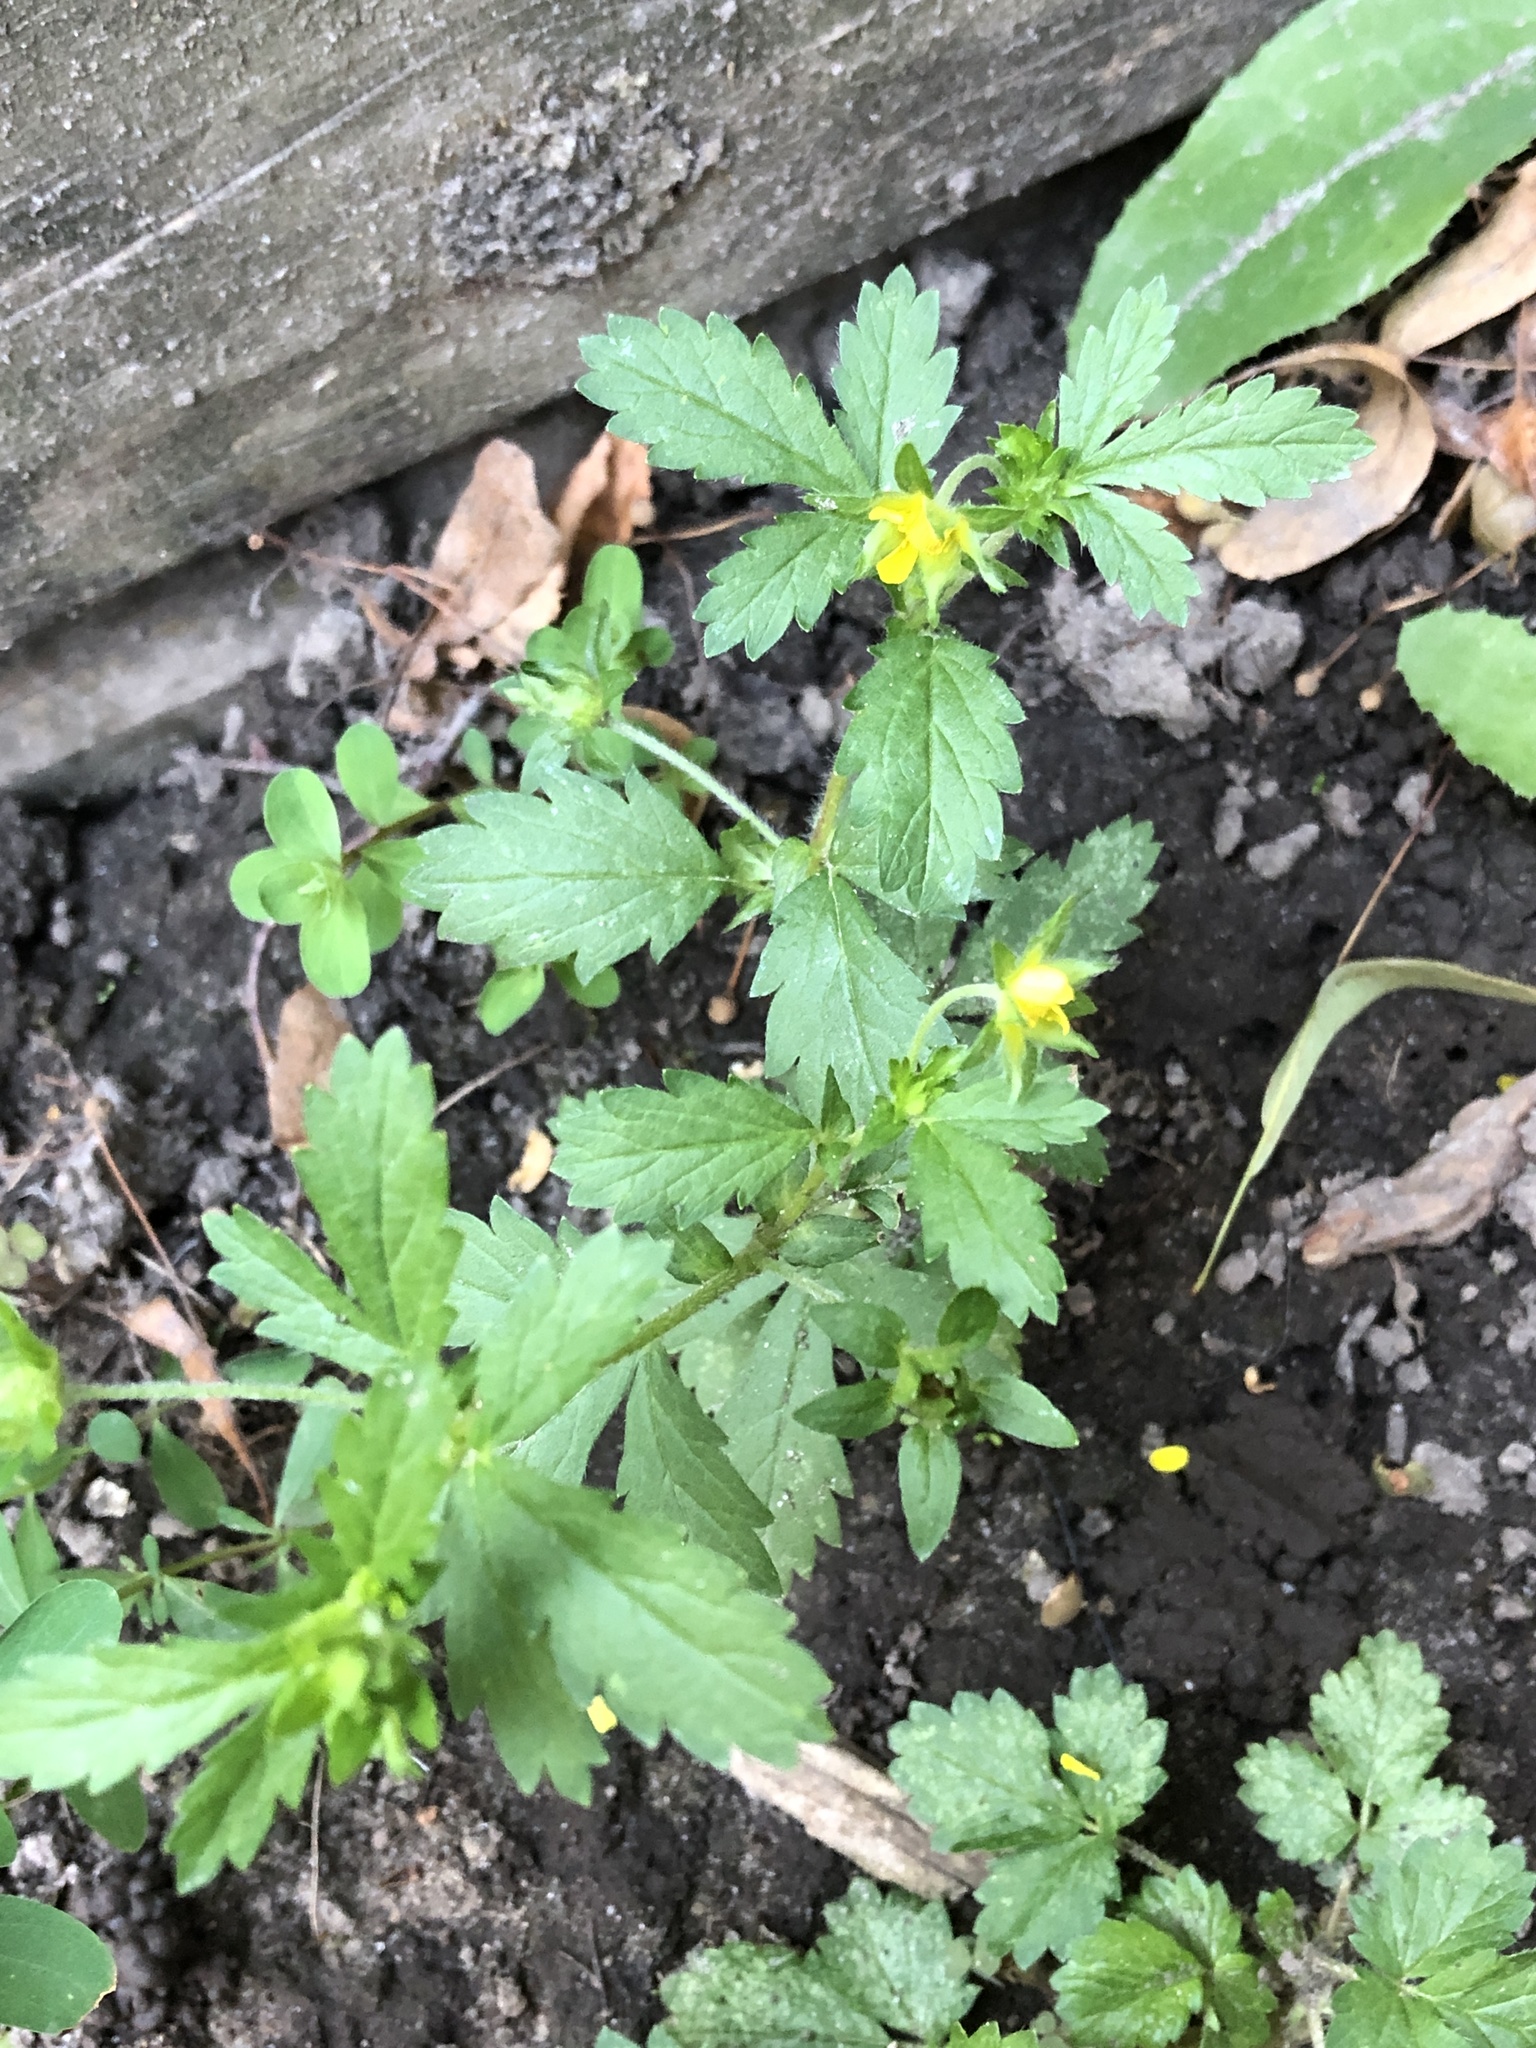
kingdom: Plantae
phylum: Tracheophyta
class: Magnoliopsida
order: Rosales
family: Rosaceae
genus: Potentilla
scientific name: Potentilla norvegica
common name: Ternate-leaved cinquefoil
